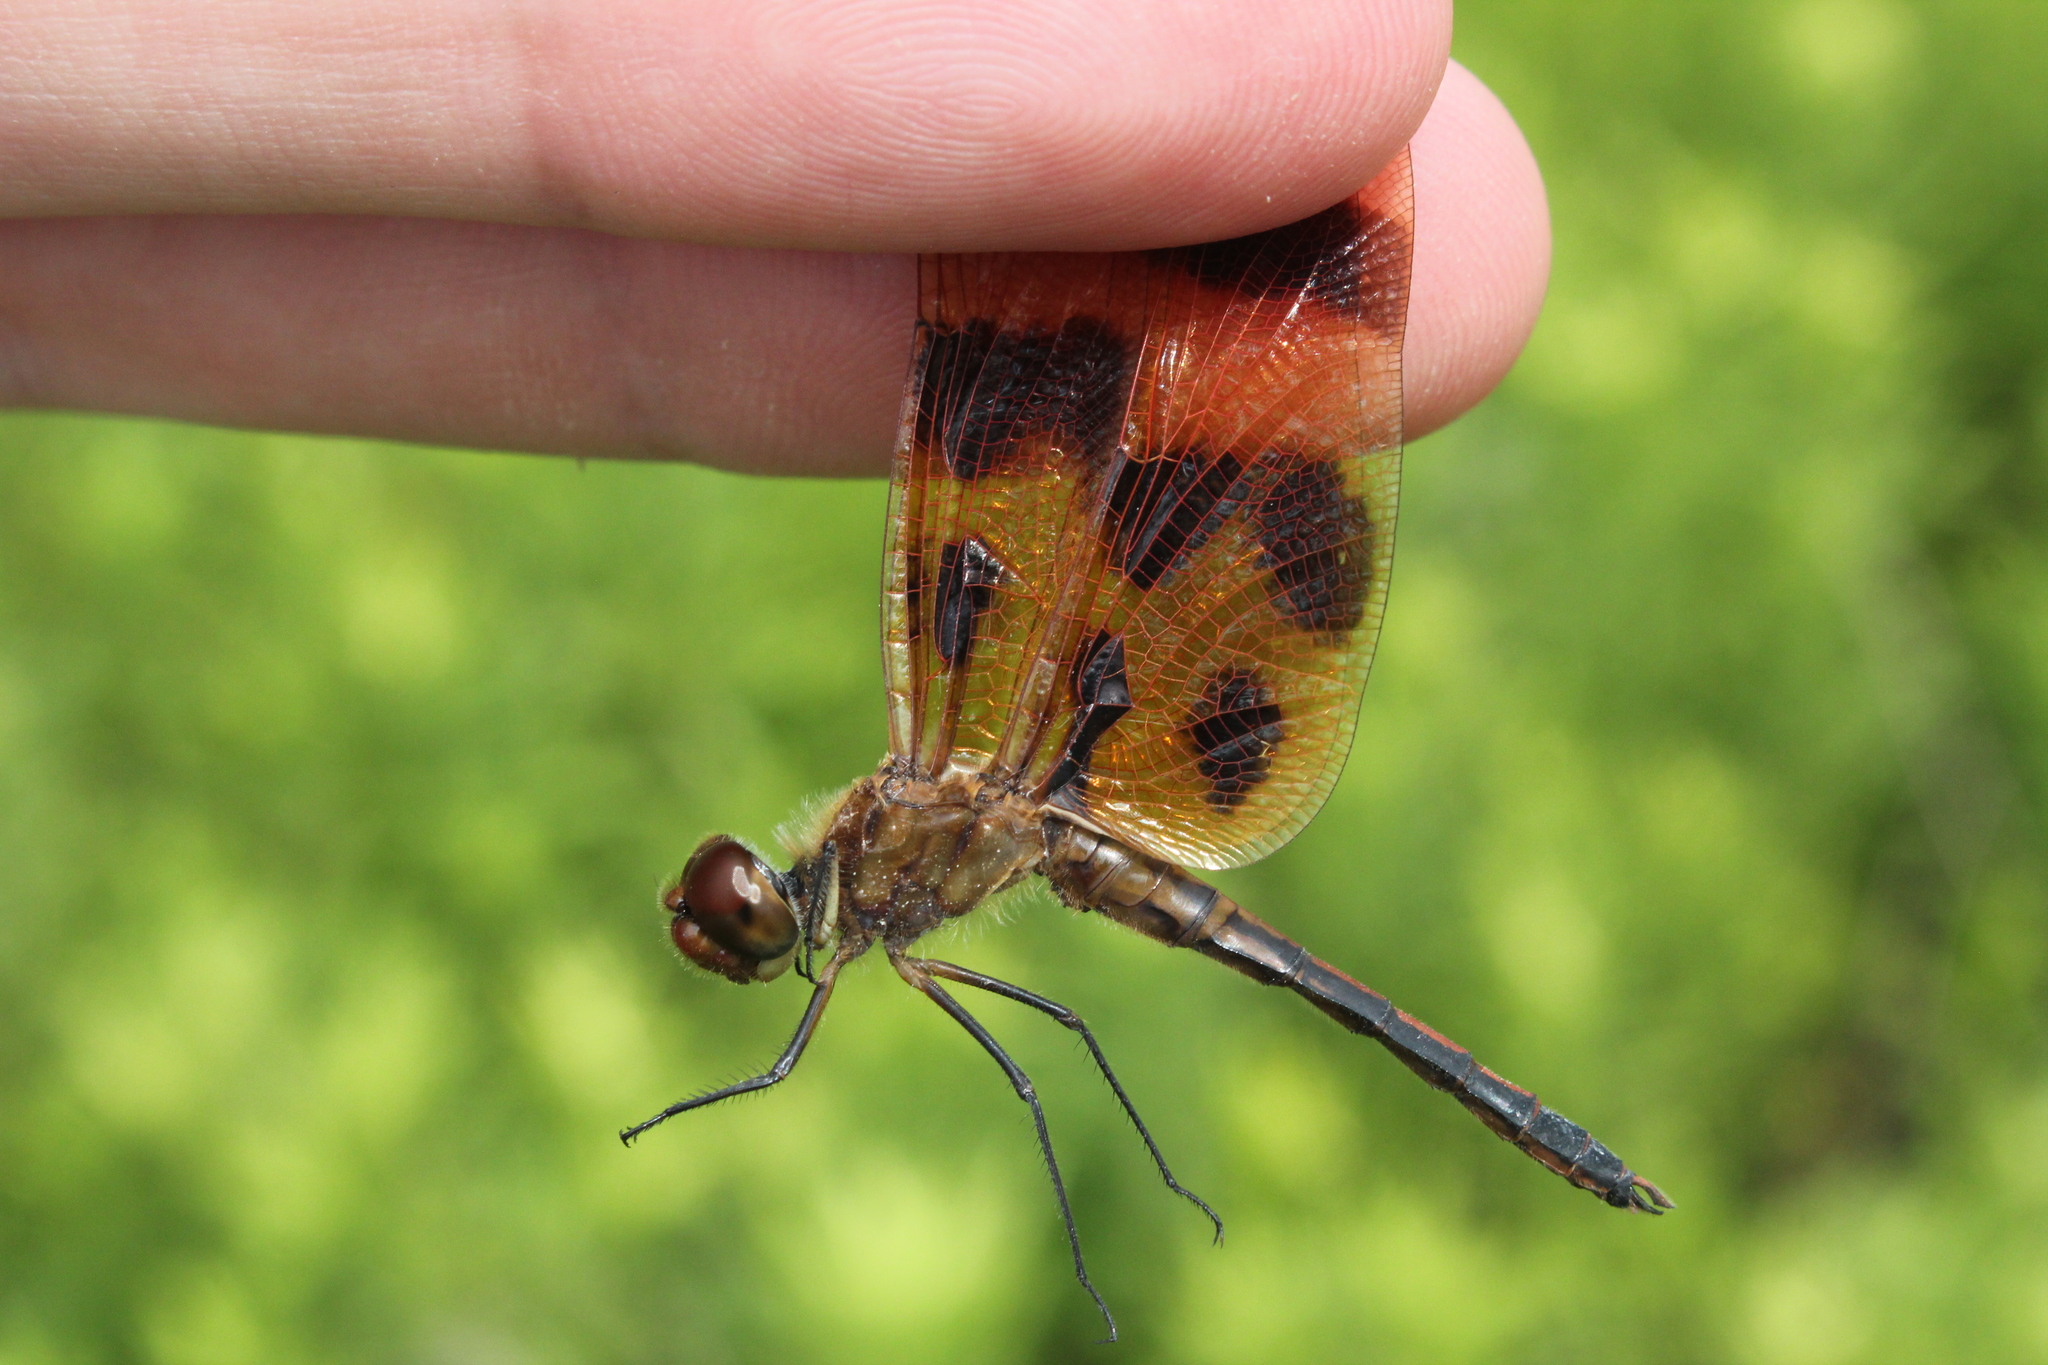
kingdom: Animalia
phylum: Arthropoda
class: Insecta
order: Odonata
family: Libellulidae
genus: Celithemis
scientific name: Celithemis eponina
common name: Halloween pennant
